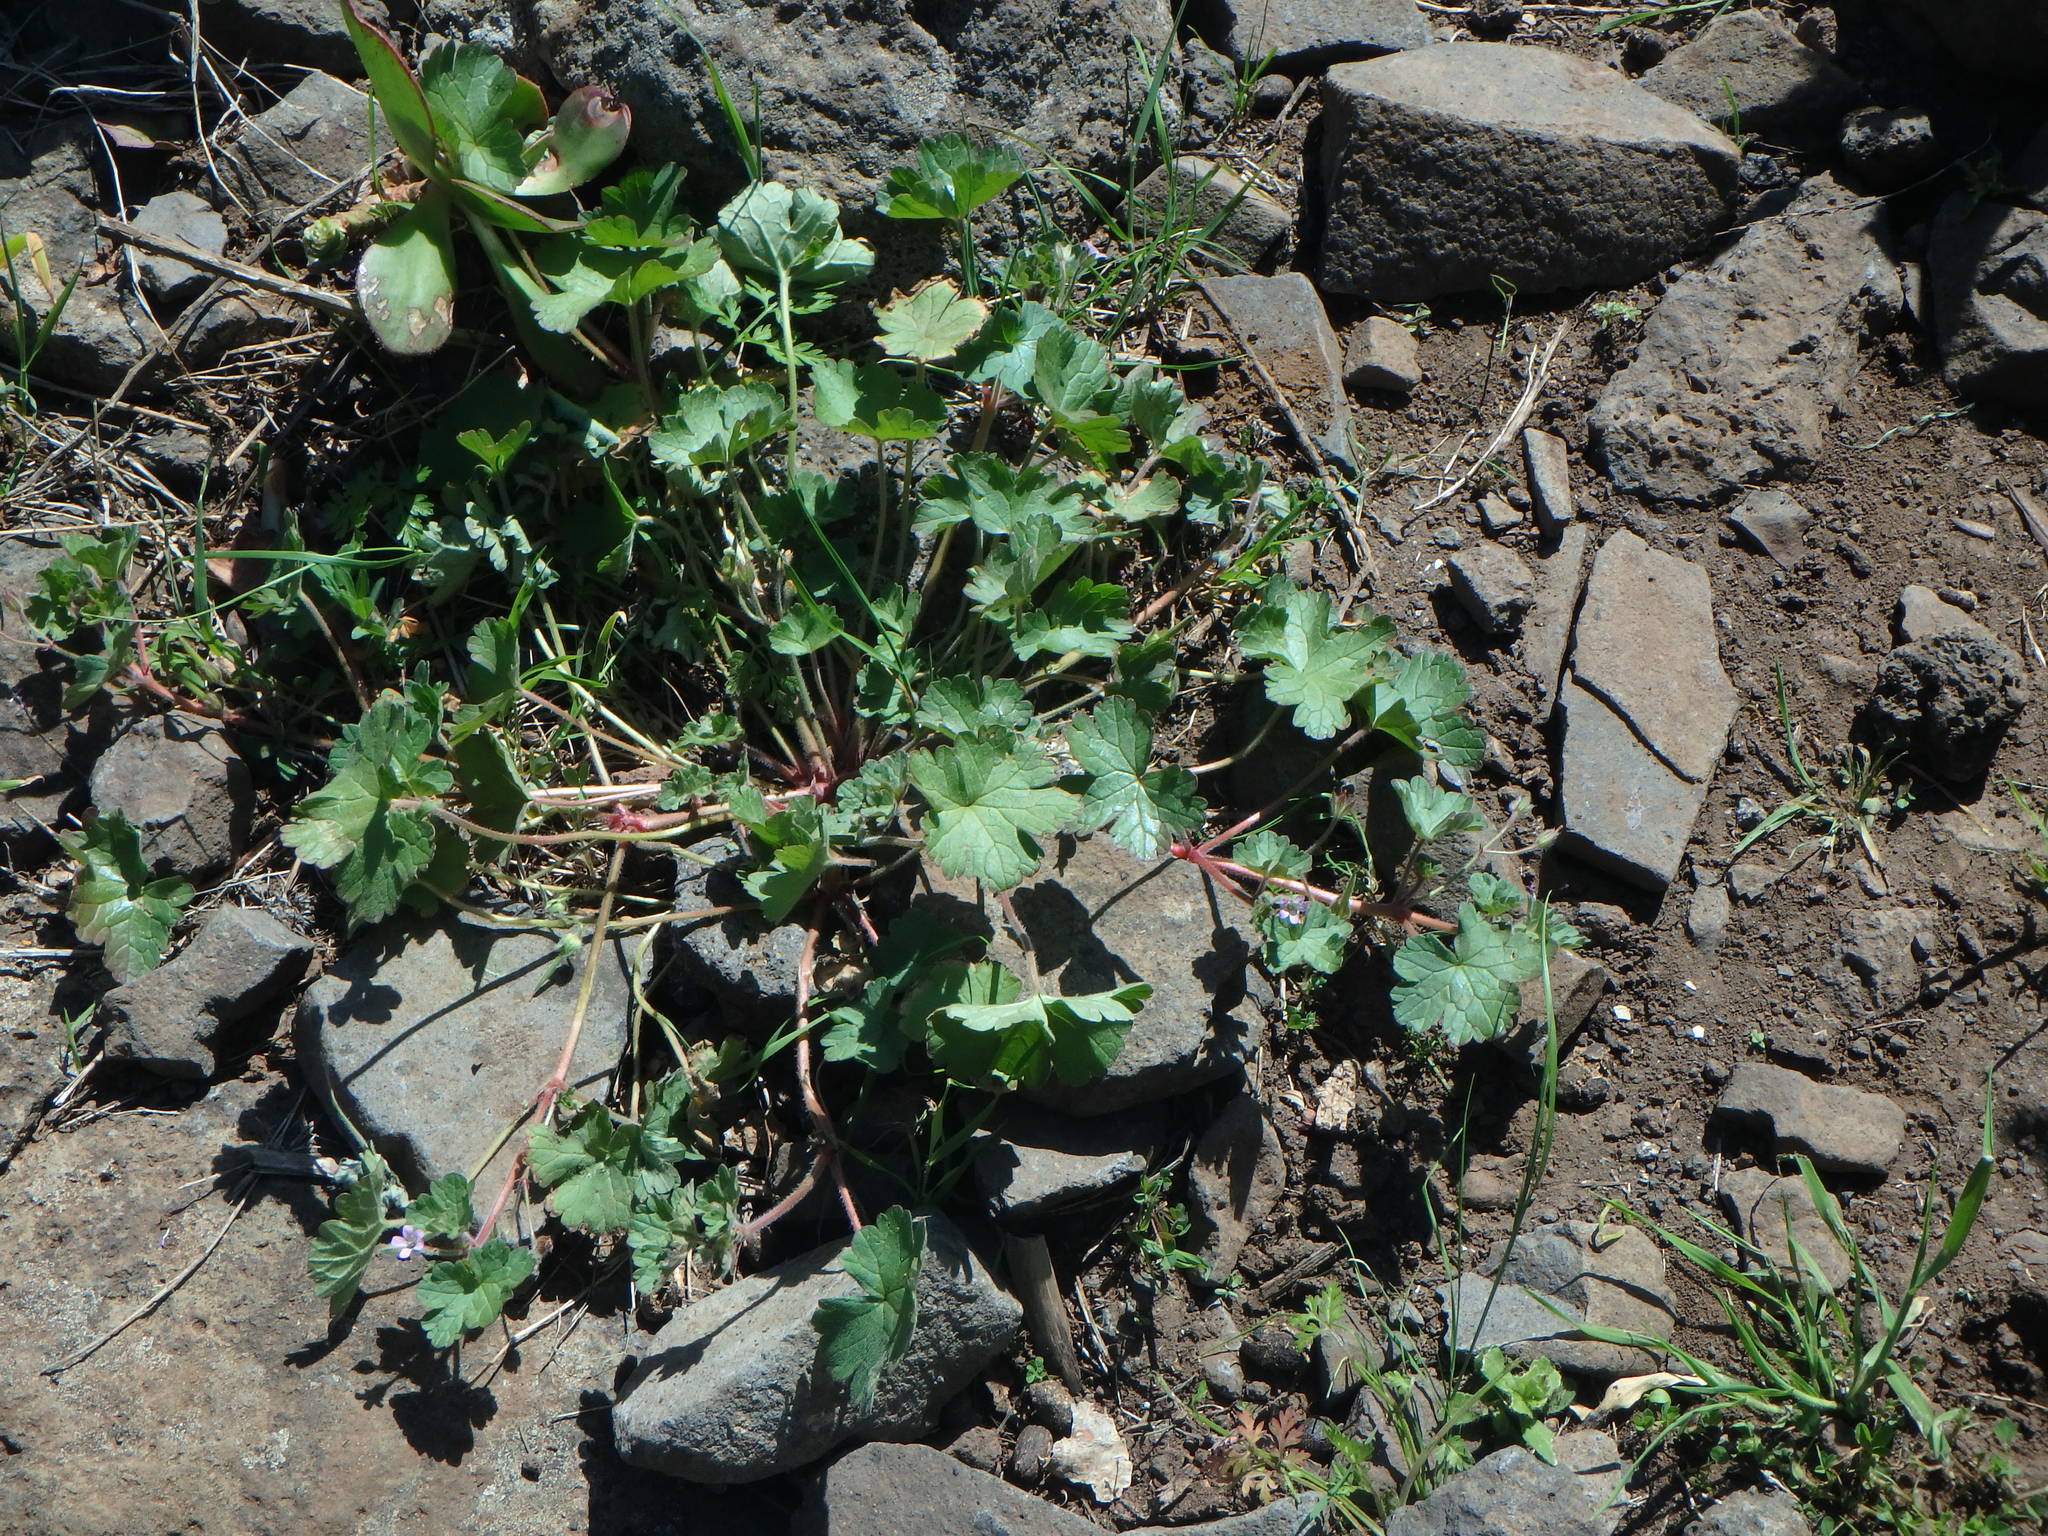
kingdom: Plantae
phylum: Tracheophyta
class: Magnoliopsida
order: Geraniales
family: Geraniaceae
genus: Geranium
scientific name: Geranium rotundifolium
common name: Round-leaved crane's-bill
